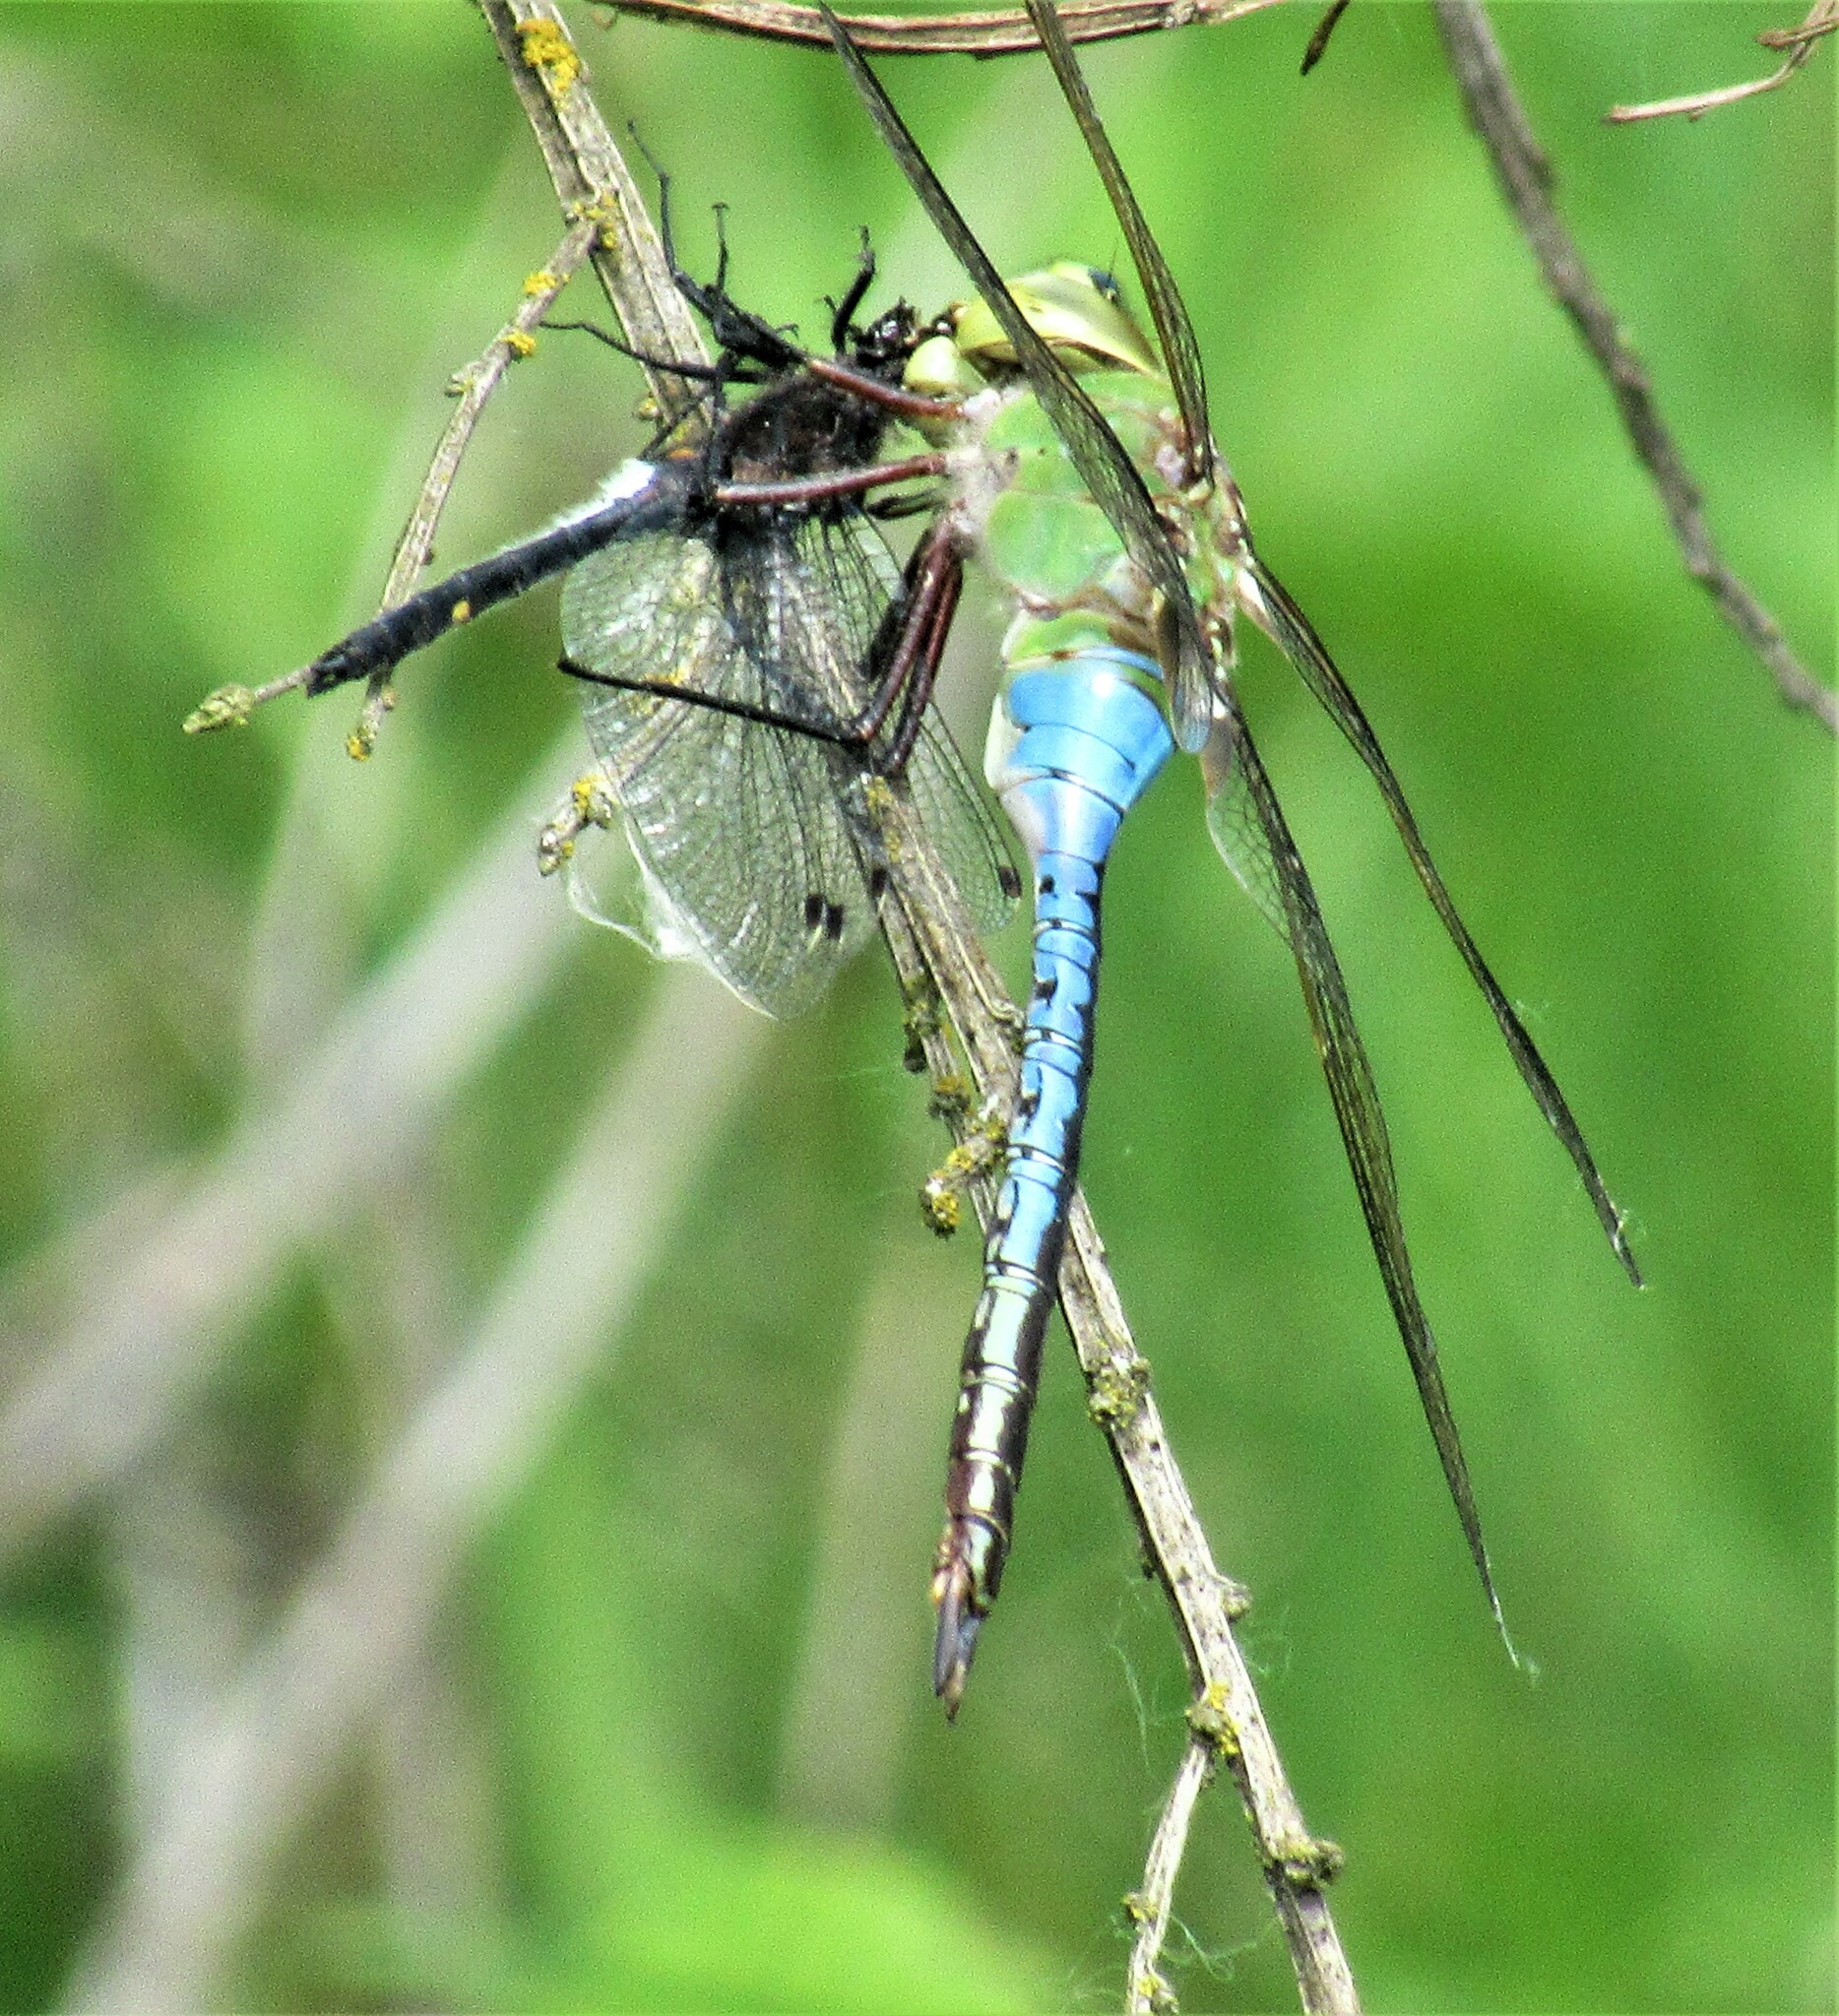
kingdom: Animalia
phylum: Arthropoda
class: Insecta
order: Odonata
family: Aeshnidae
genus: Anax
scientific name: Anax junius
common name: Common green darner
